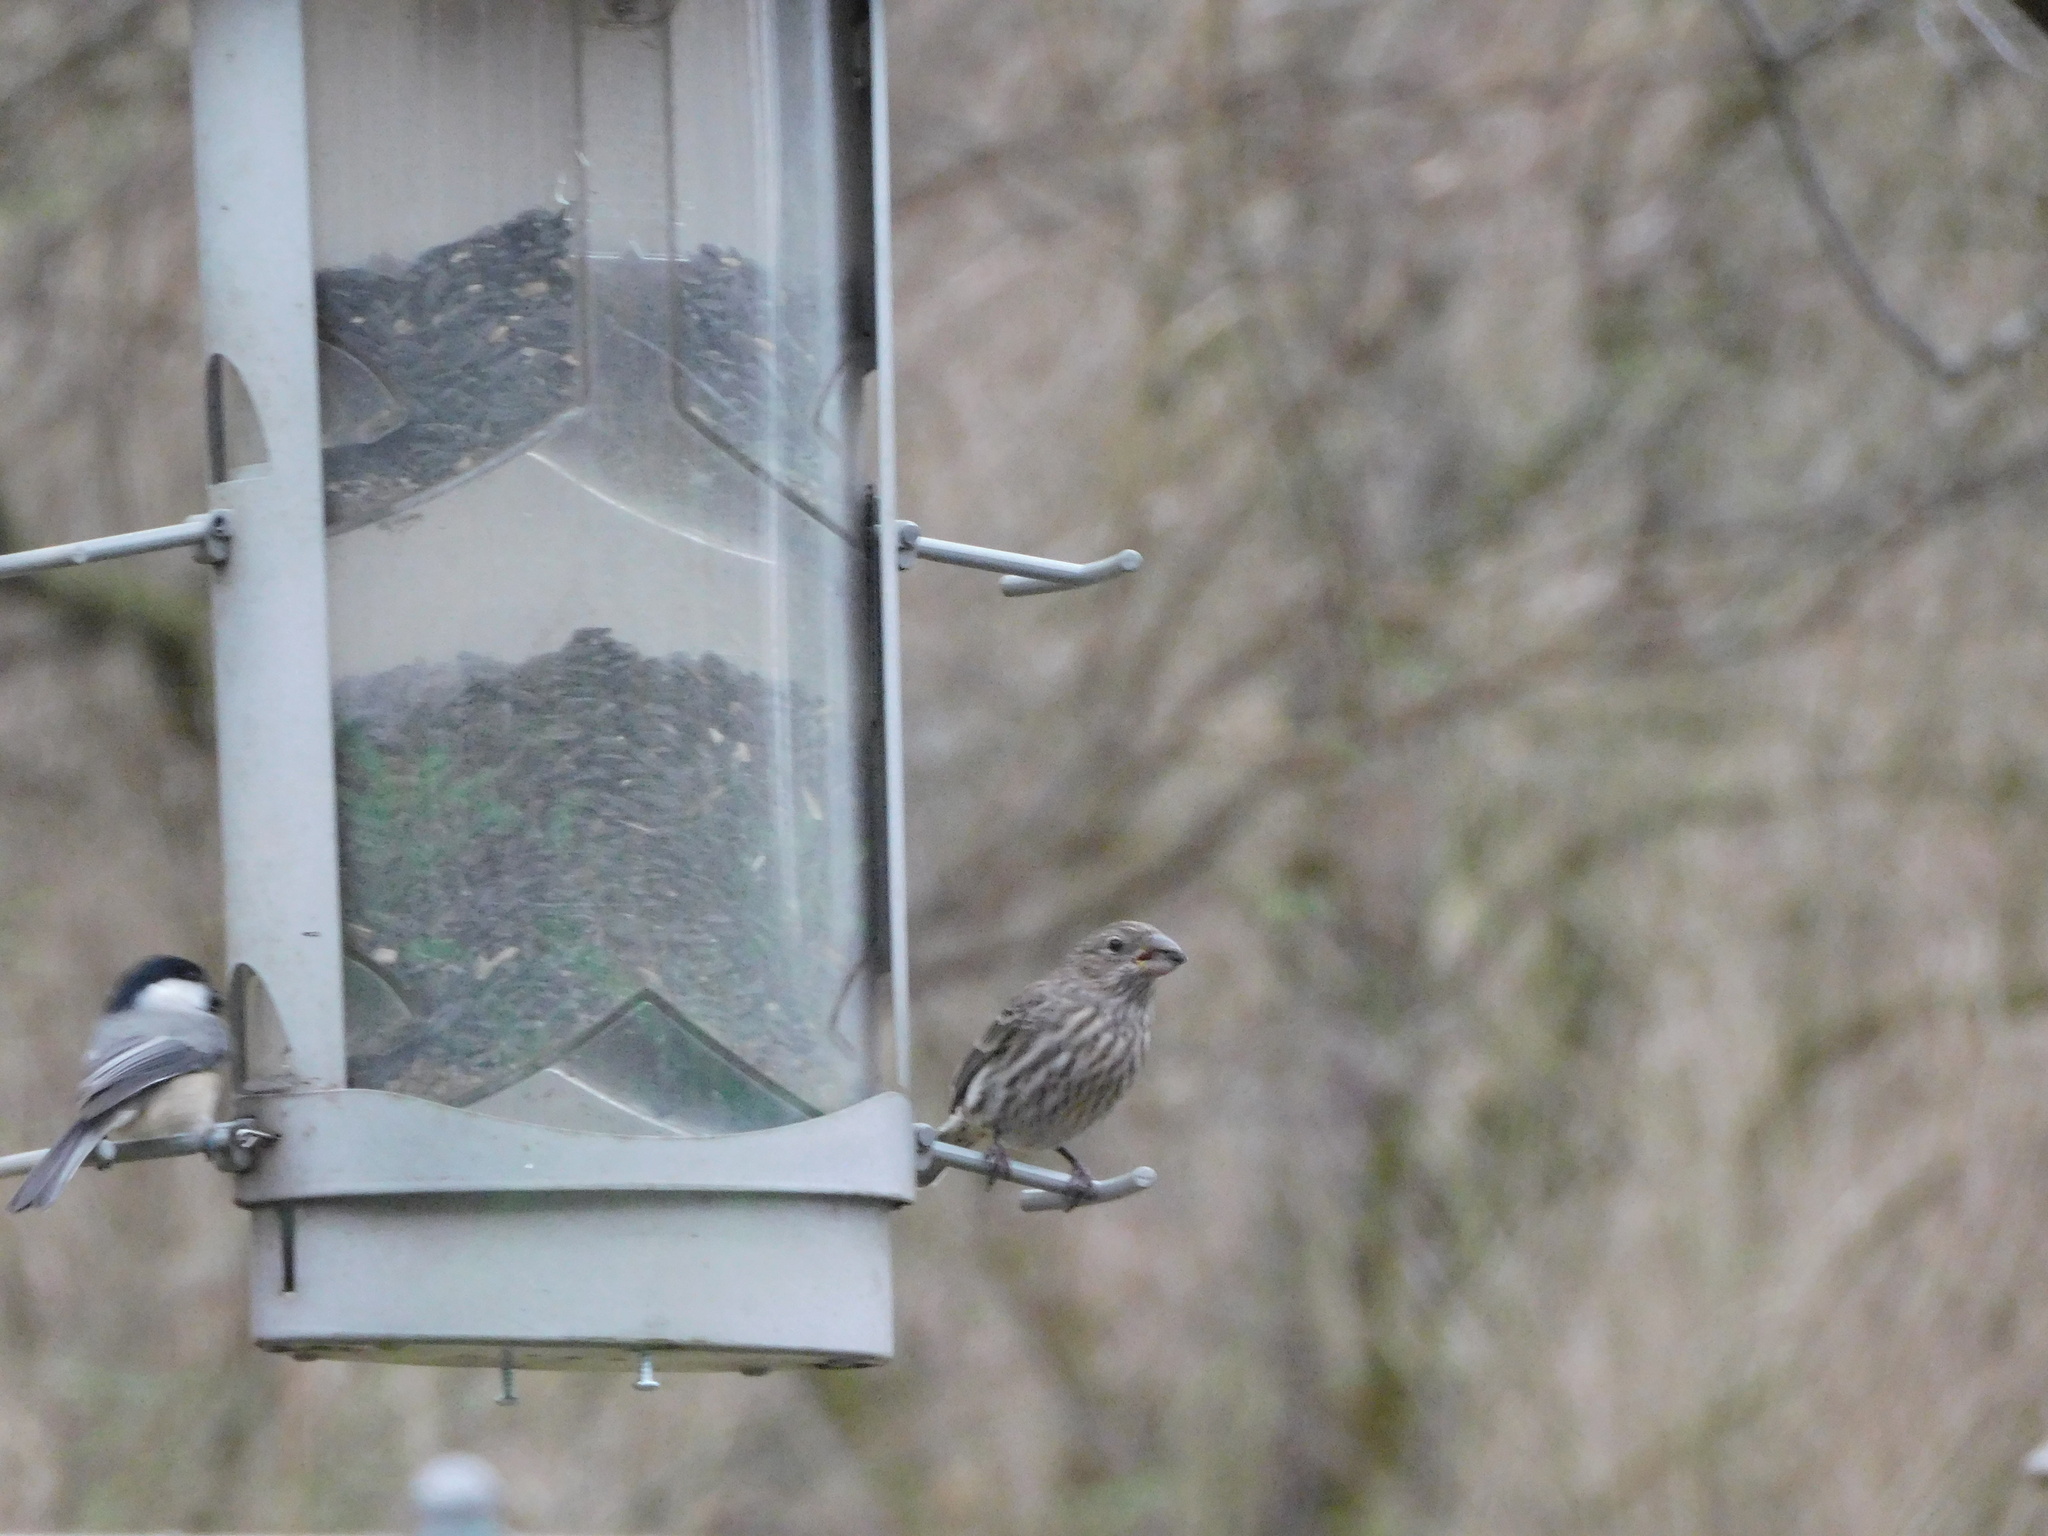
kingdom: Animalia
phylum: Chordata
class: Aves
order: Passeriformes
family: Paridae
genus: Poecile
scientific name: Poecile carolinensis
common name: Carolina chickadee
